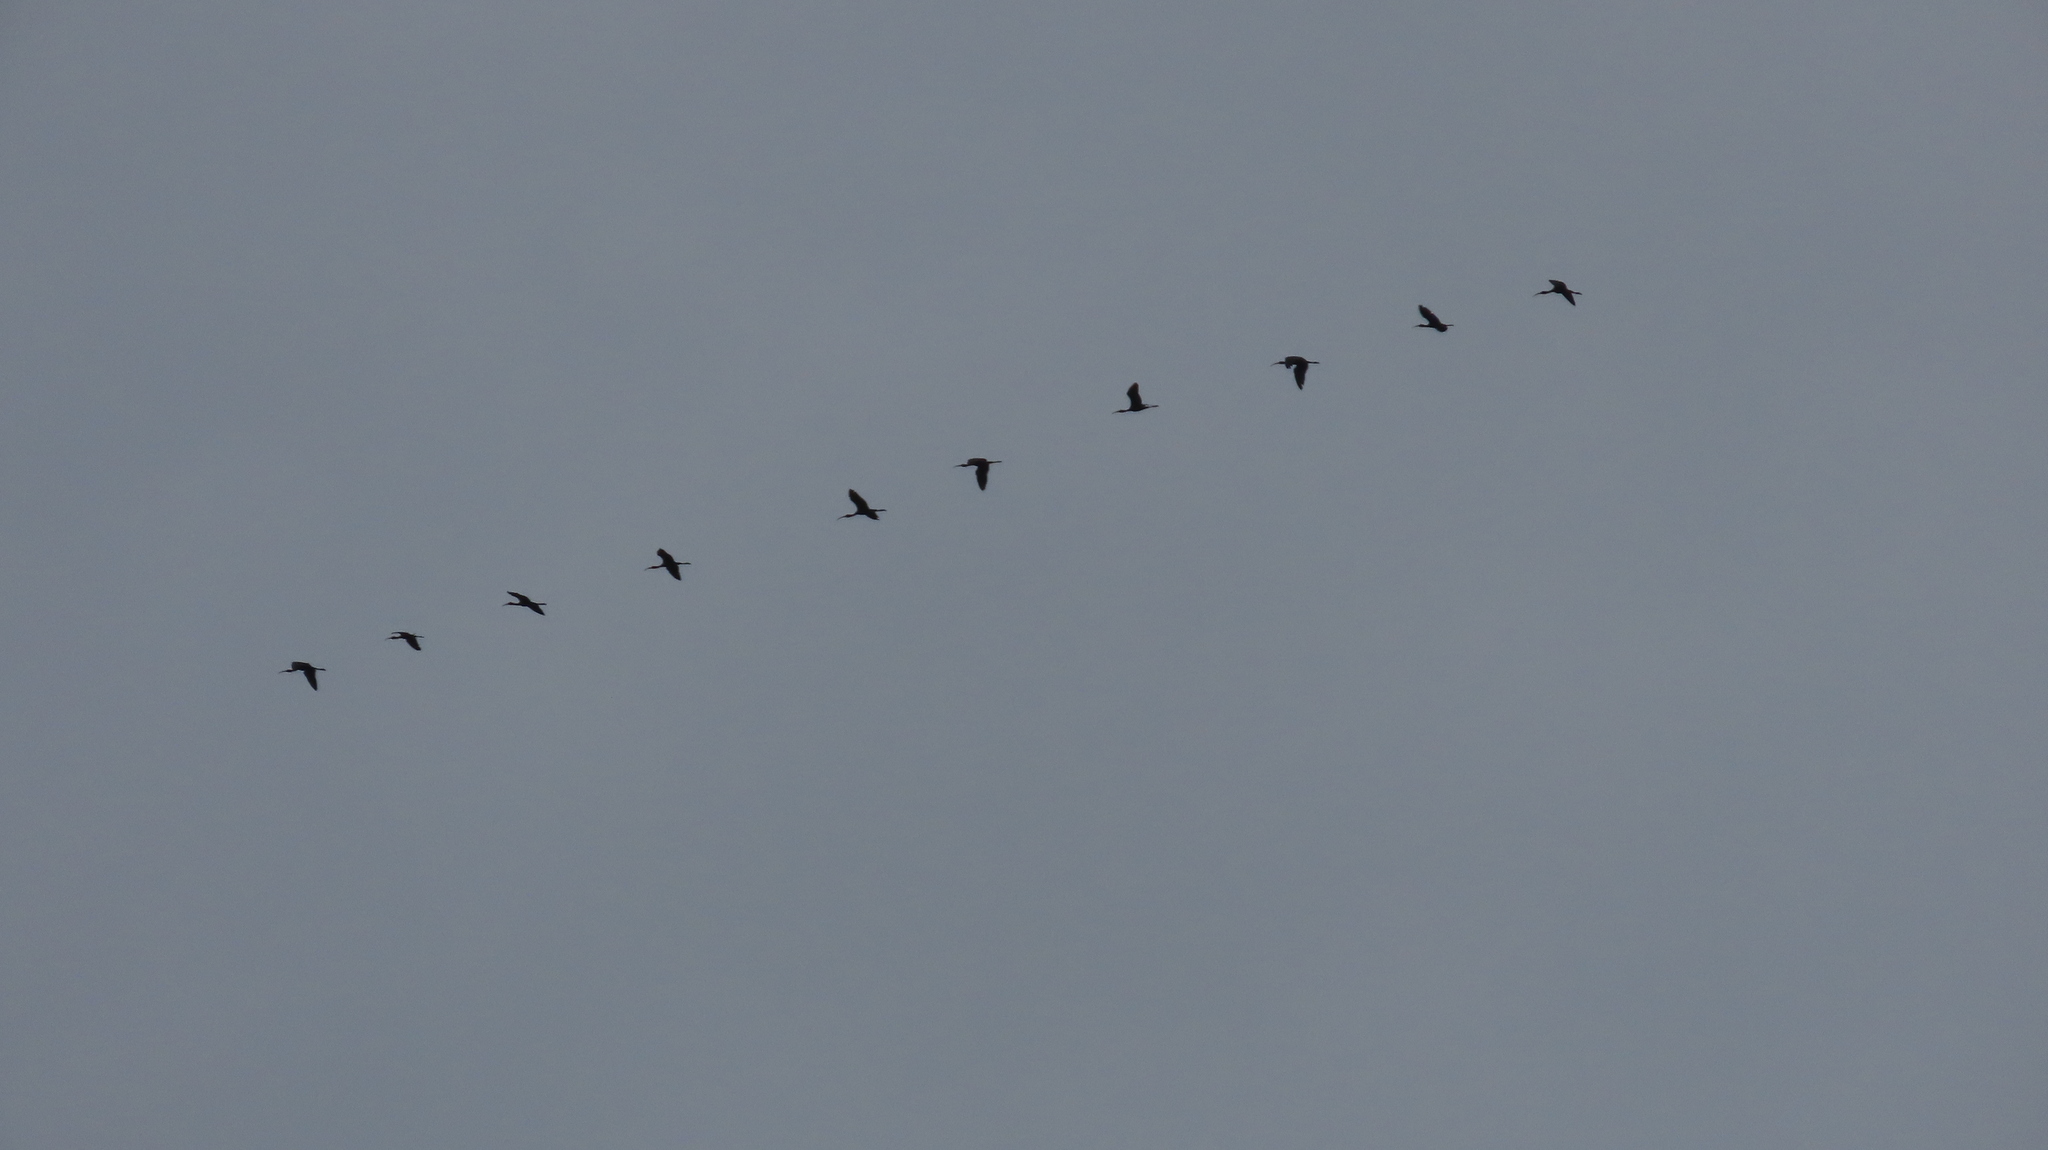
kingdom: Animalia
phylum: Chordata
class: Aves
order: Pelecaniformes
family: Threskiornithidae
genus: Plegadis
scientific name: Plegadis falcinellus
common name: Glossy ibis
